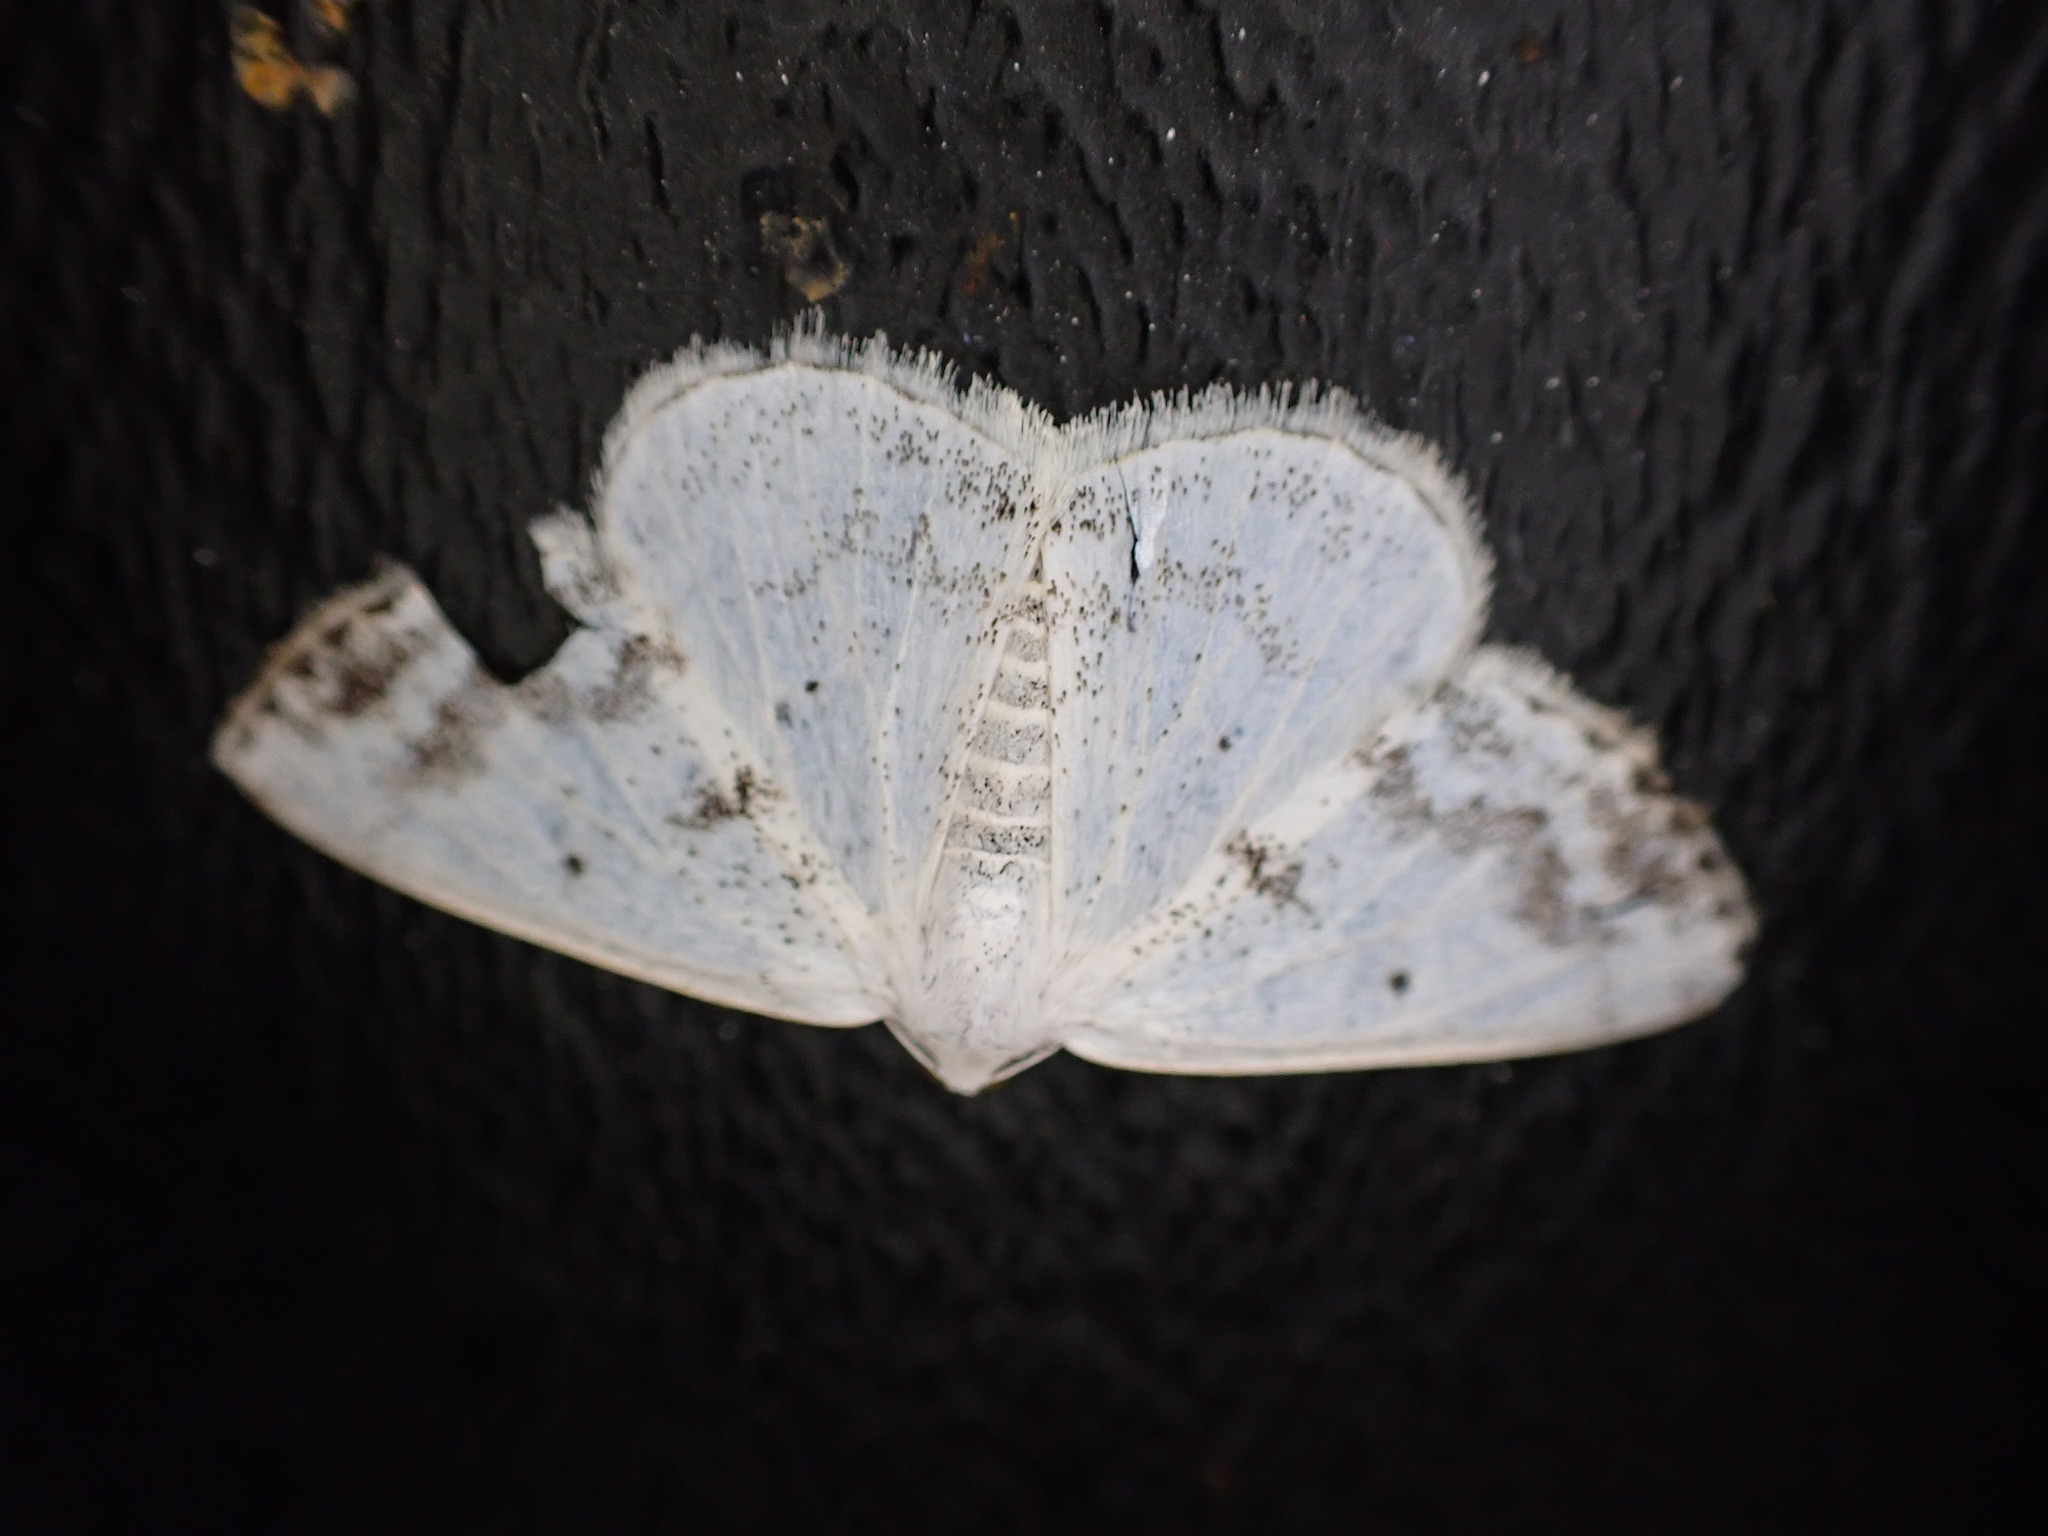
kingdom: Animalia
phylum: Arthropoda
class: Insecta
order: Lepidoptera
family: Geometridae
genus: Lomographa
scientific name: Lomographa temerata
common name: Clouded silver
